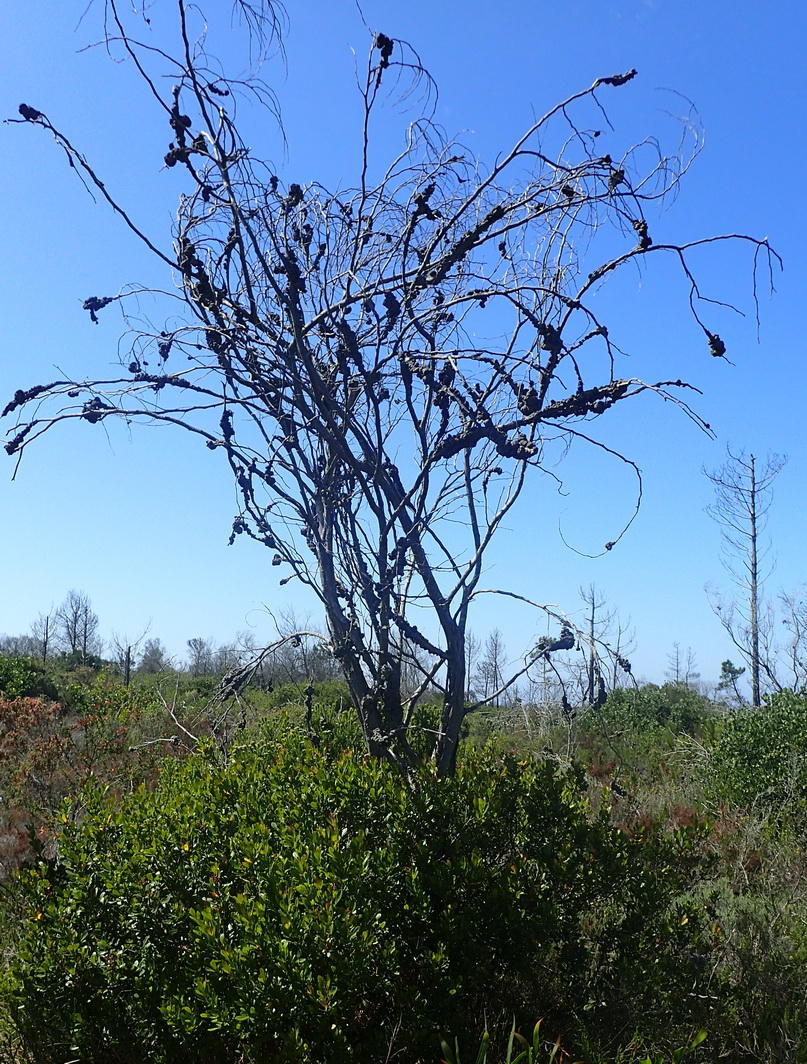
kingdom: Plantae
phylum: Tracheophyta
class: Magnoliopsida
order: Fabales
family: Fabaceae
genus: Acacia
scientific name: Acacia saligna
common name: Orange wattle
